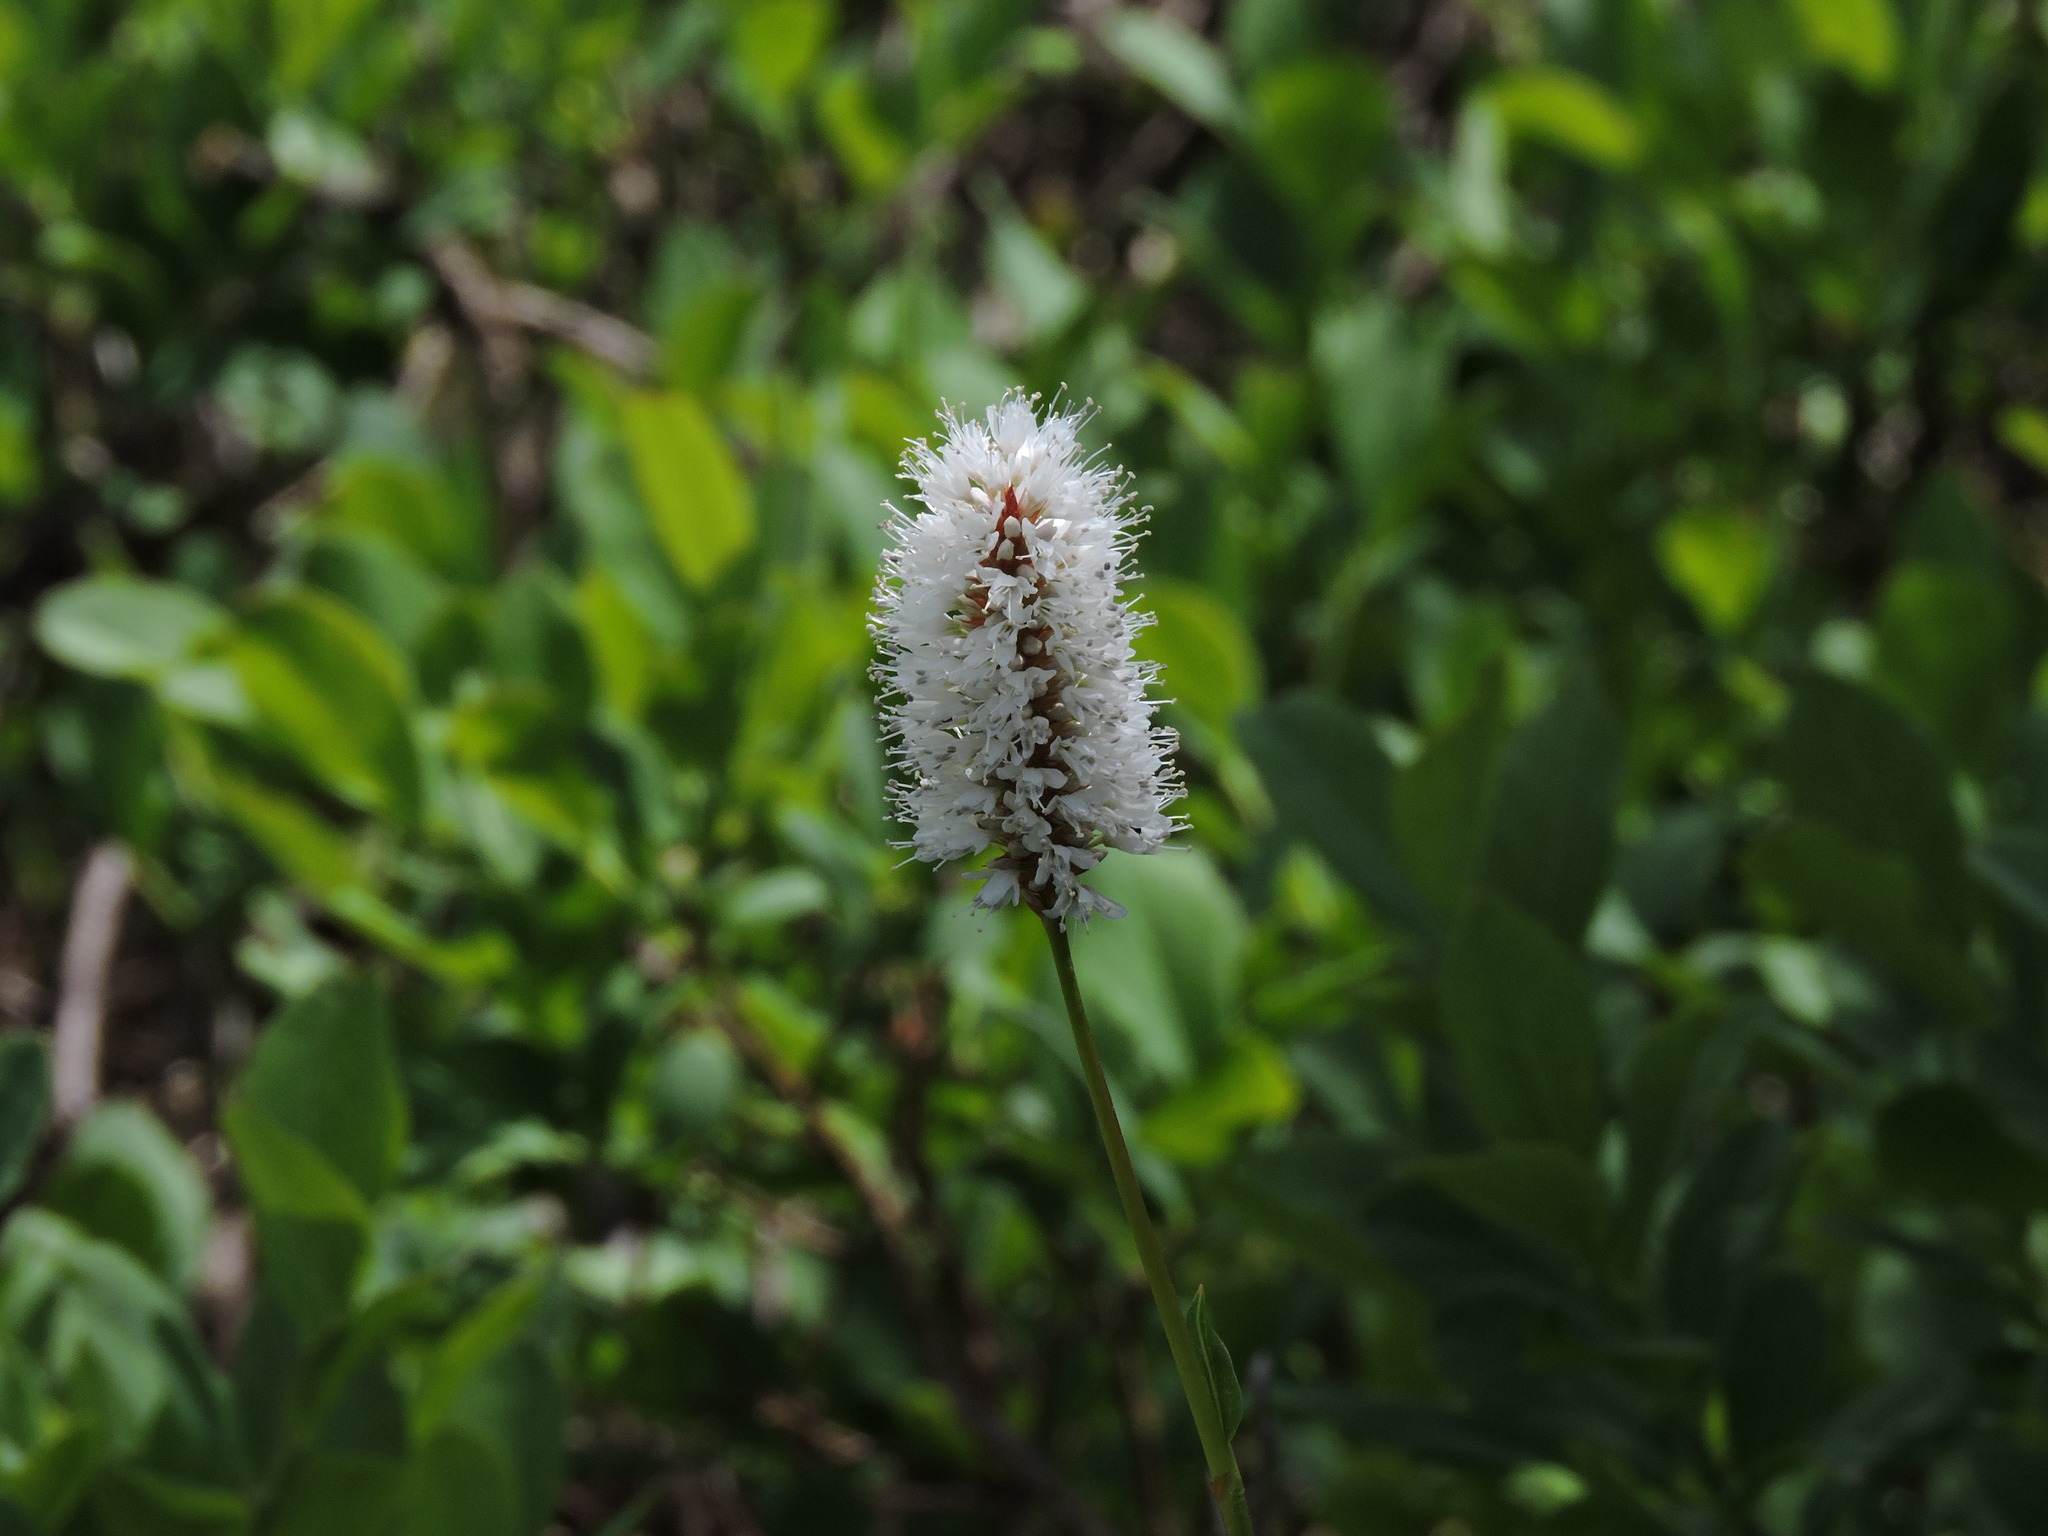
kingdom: Plantae
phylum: Tracheophyta
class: Magnoliopsida
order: Caryophyllales
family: Polygonaceae
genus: Bistorta
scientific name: Bistorta bistortoides
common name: American bistort
